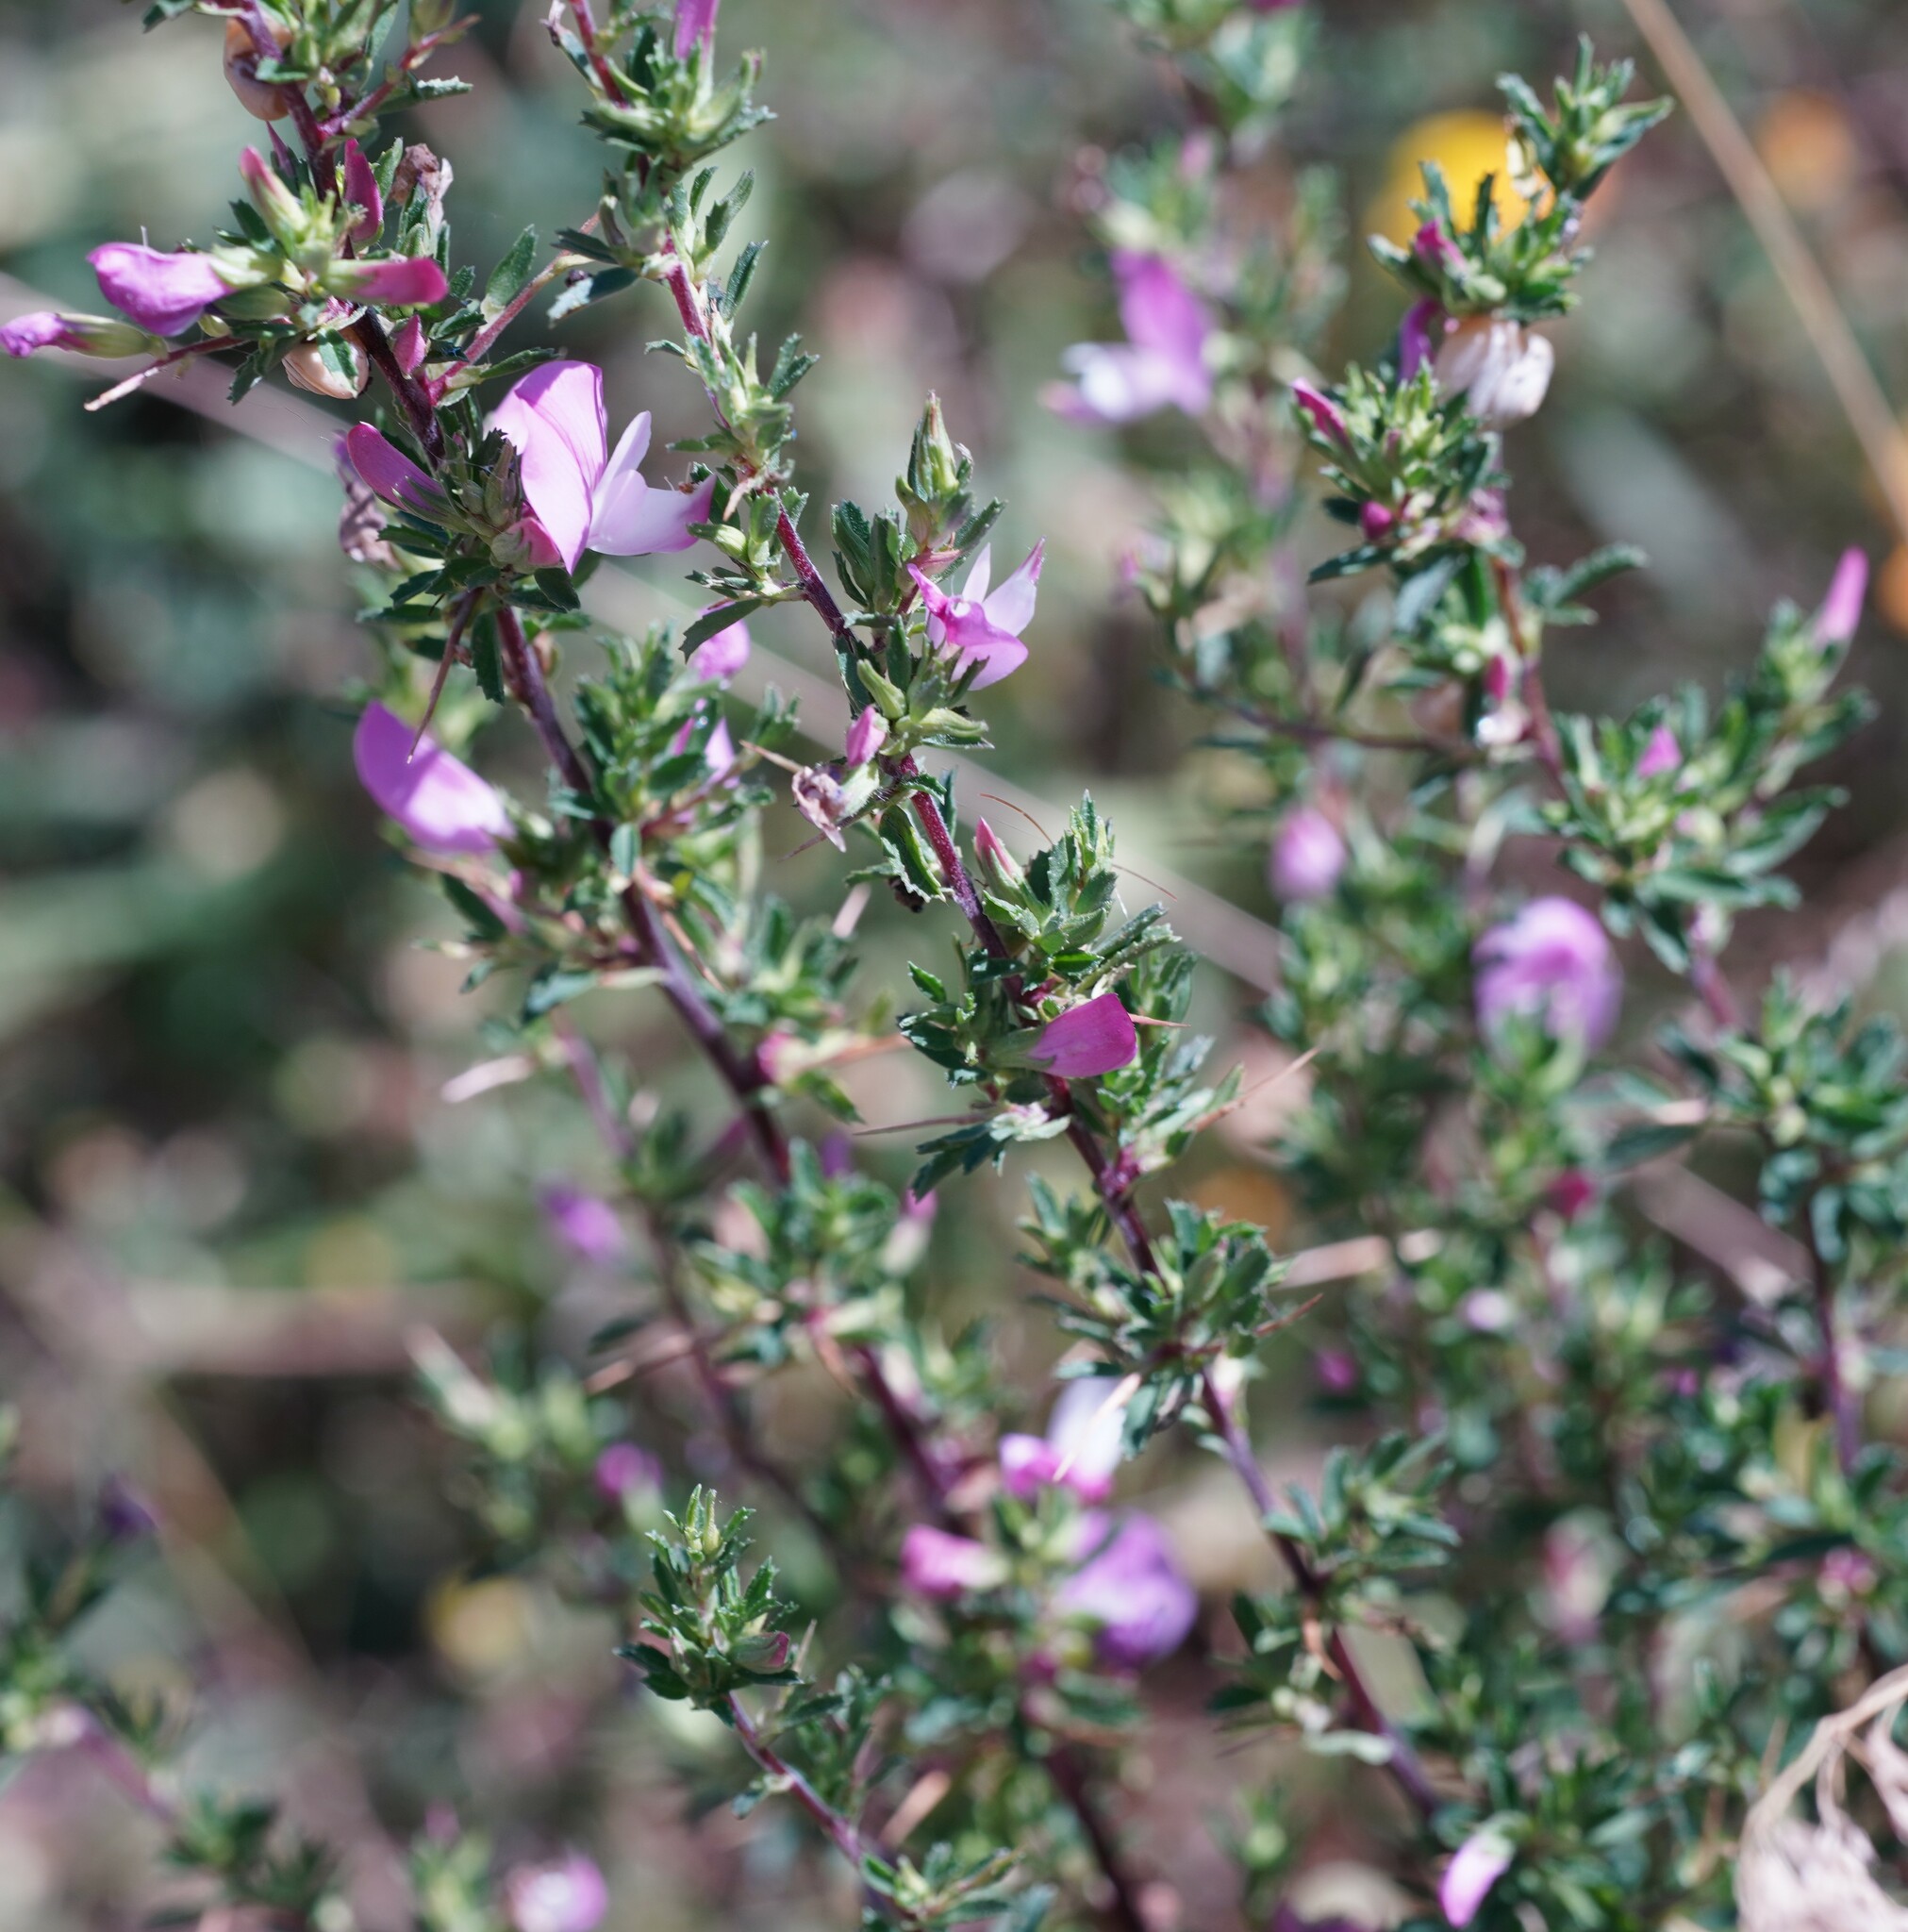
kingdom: Plantae
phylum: Tracheophyta
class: Magnoliopsida
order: Fabales
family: Fabaceae
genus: Ononis
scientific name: Ononis spinosa
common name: Spiny restharrow
